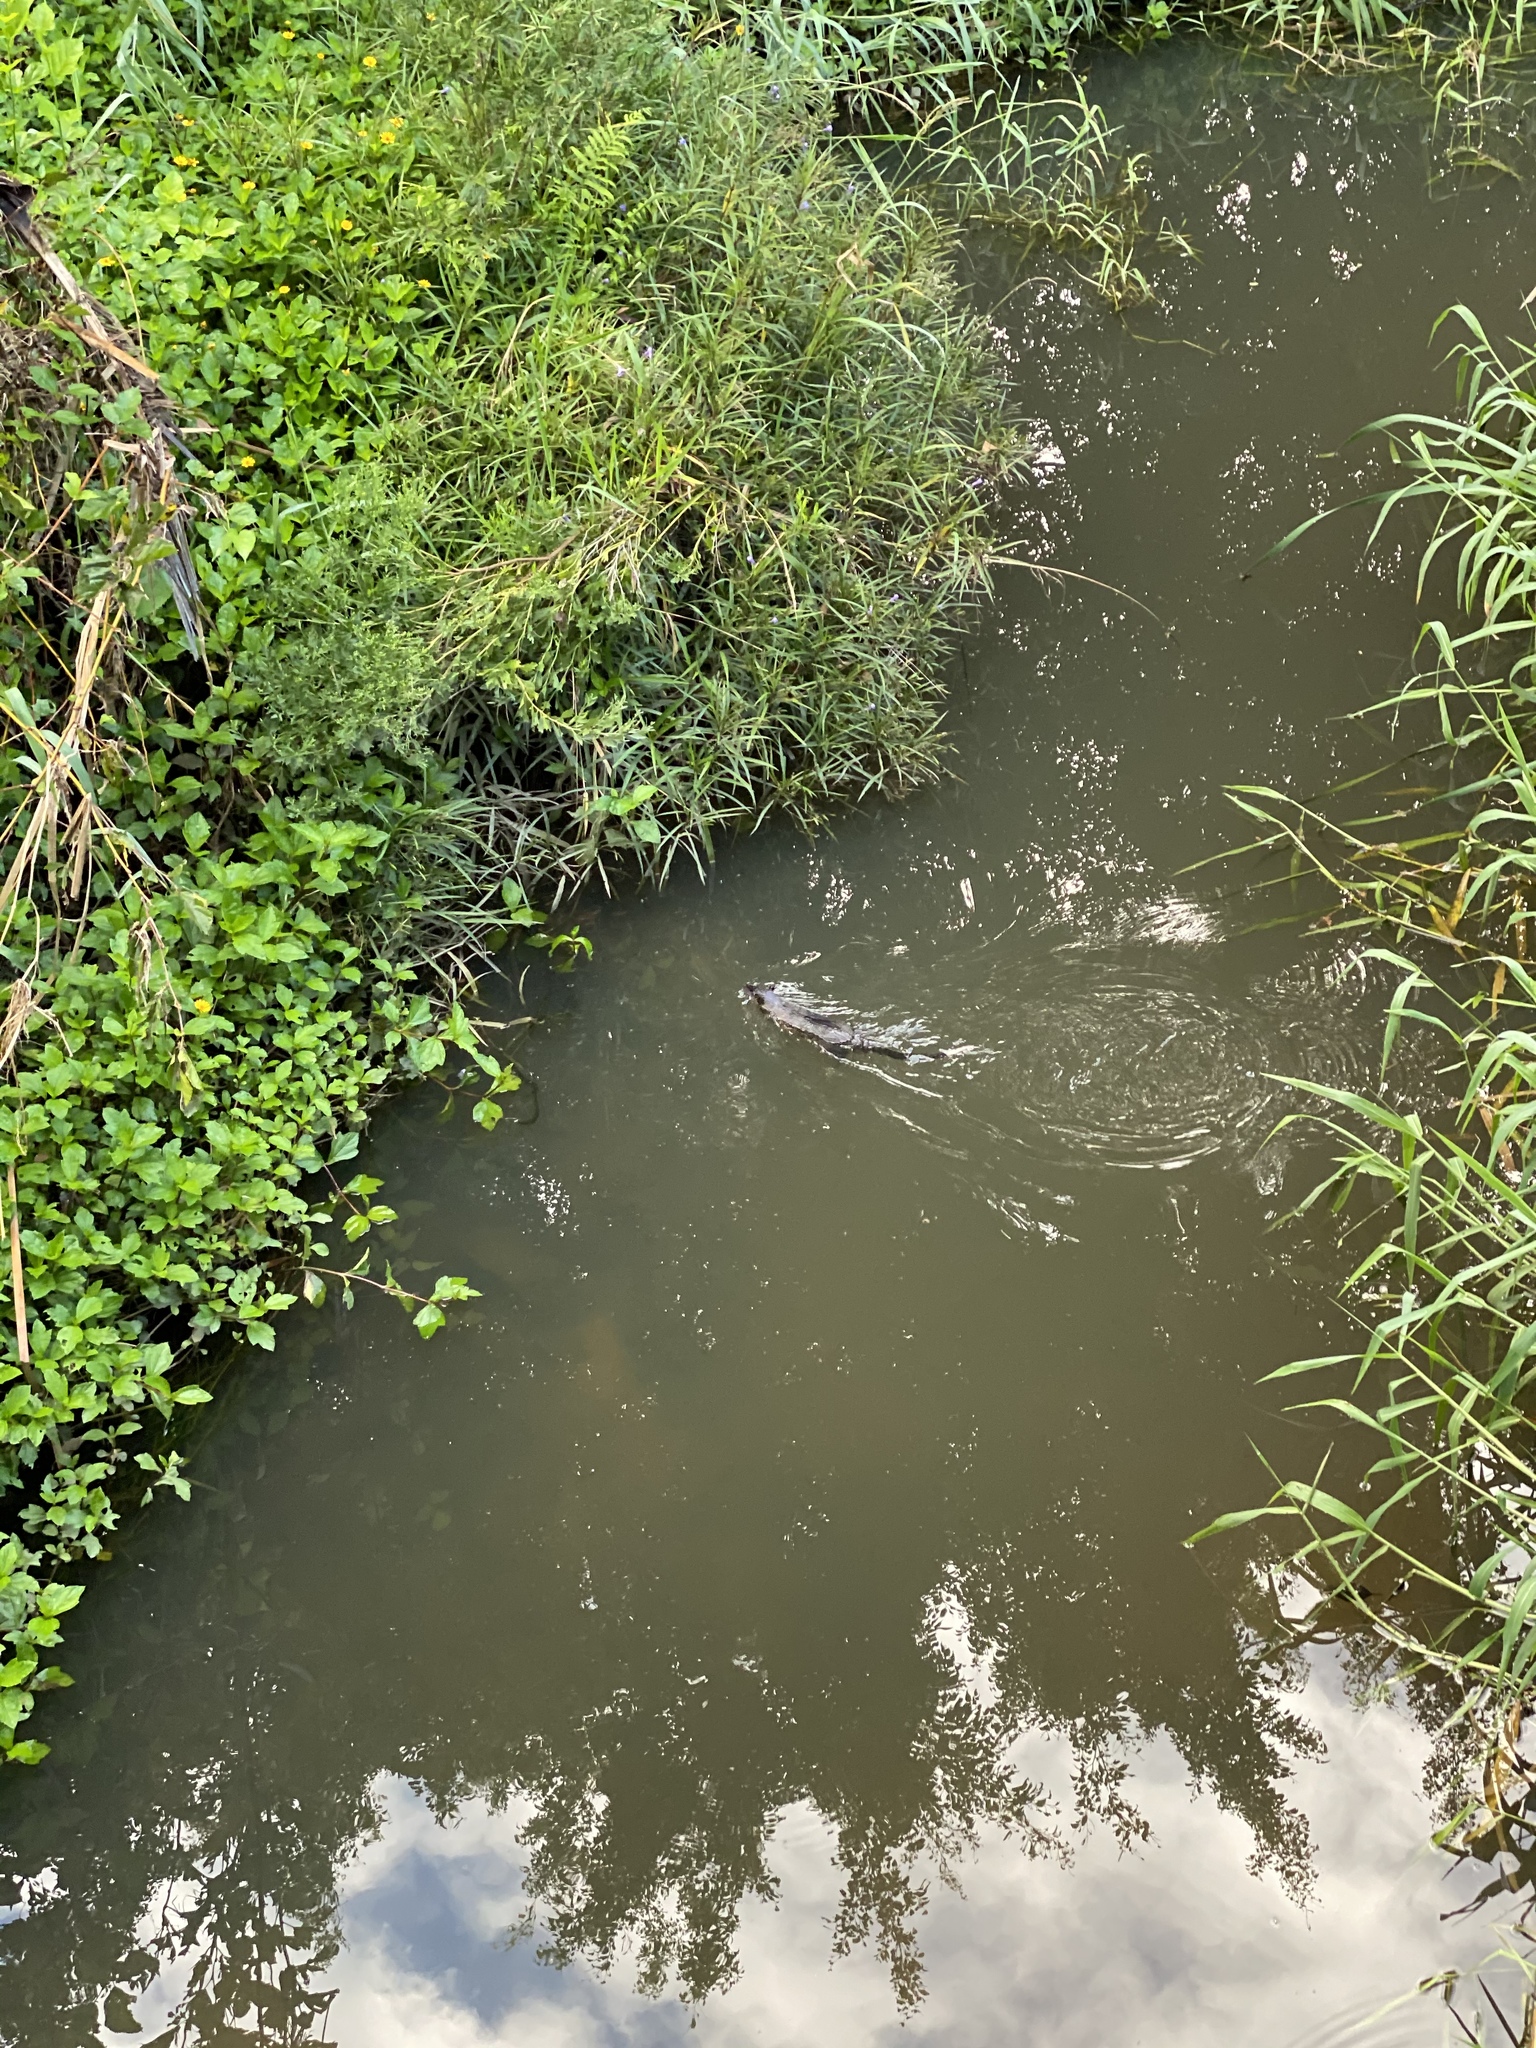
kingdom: Animalia
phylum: Chordata
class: Mammalia
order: Rodentia
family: Muridae
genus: Hydromys
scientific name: Hydromys chrysogaster
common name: Common water rat
